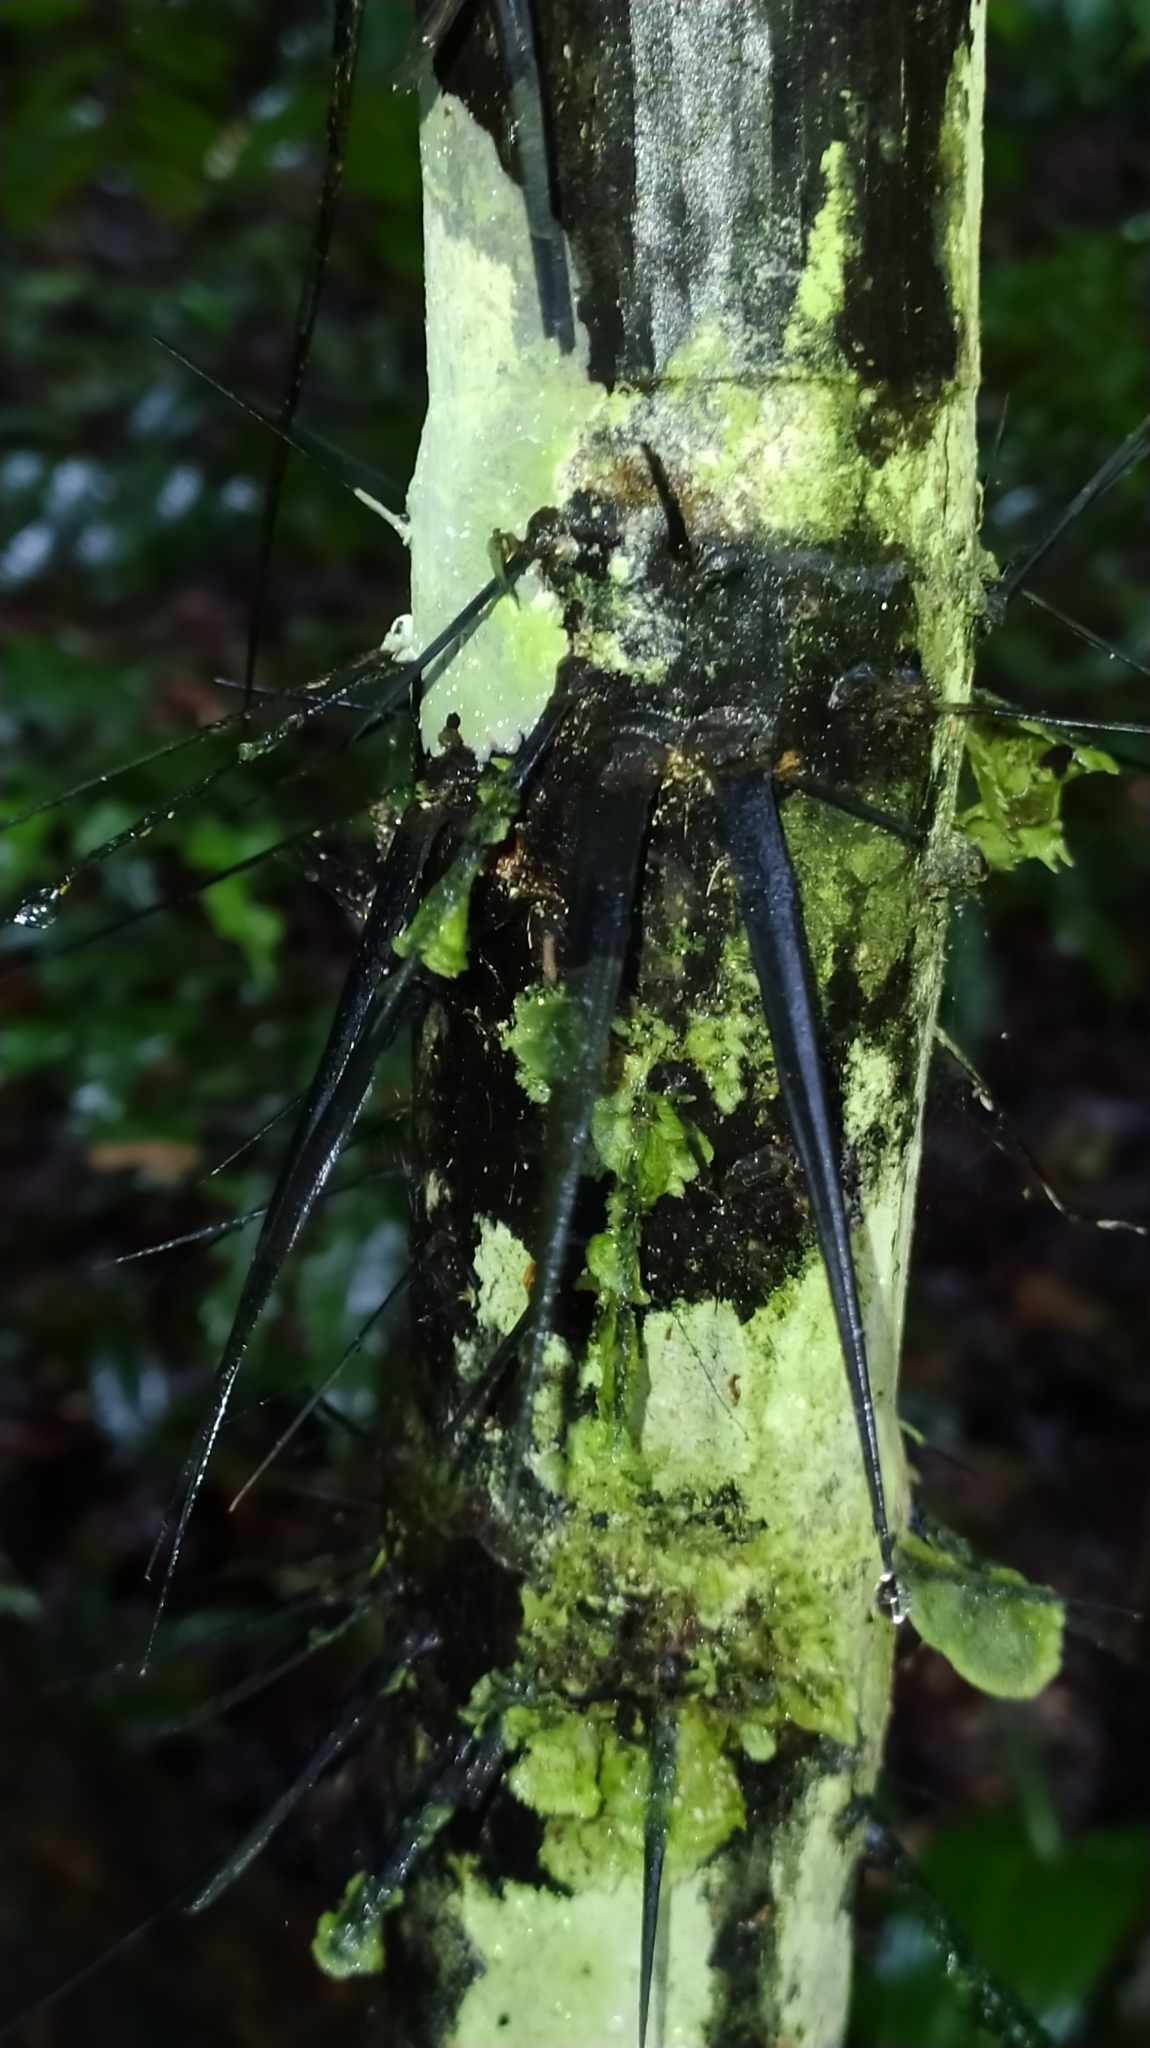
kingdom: Plantae
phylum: Tracheophyta
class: Liliopsida
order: Arecales
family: Arecaceae
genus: Astrocaryum
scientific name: Astrocaryum aculeatum
